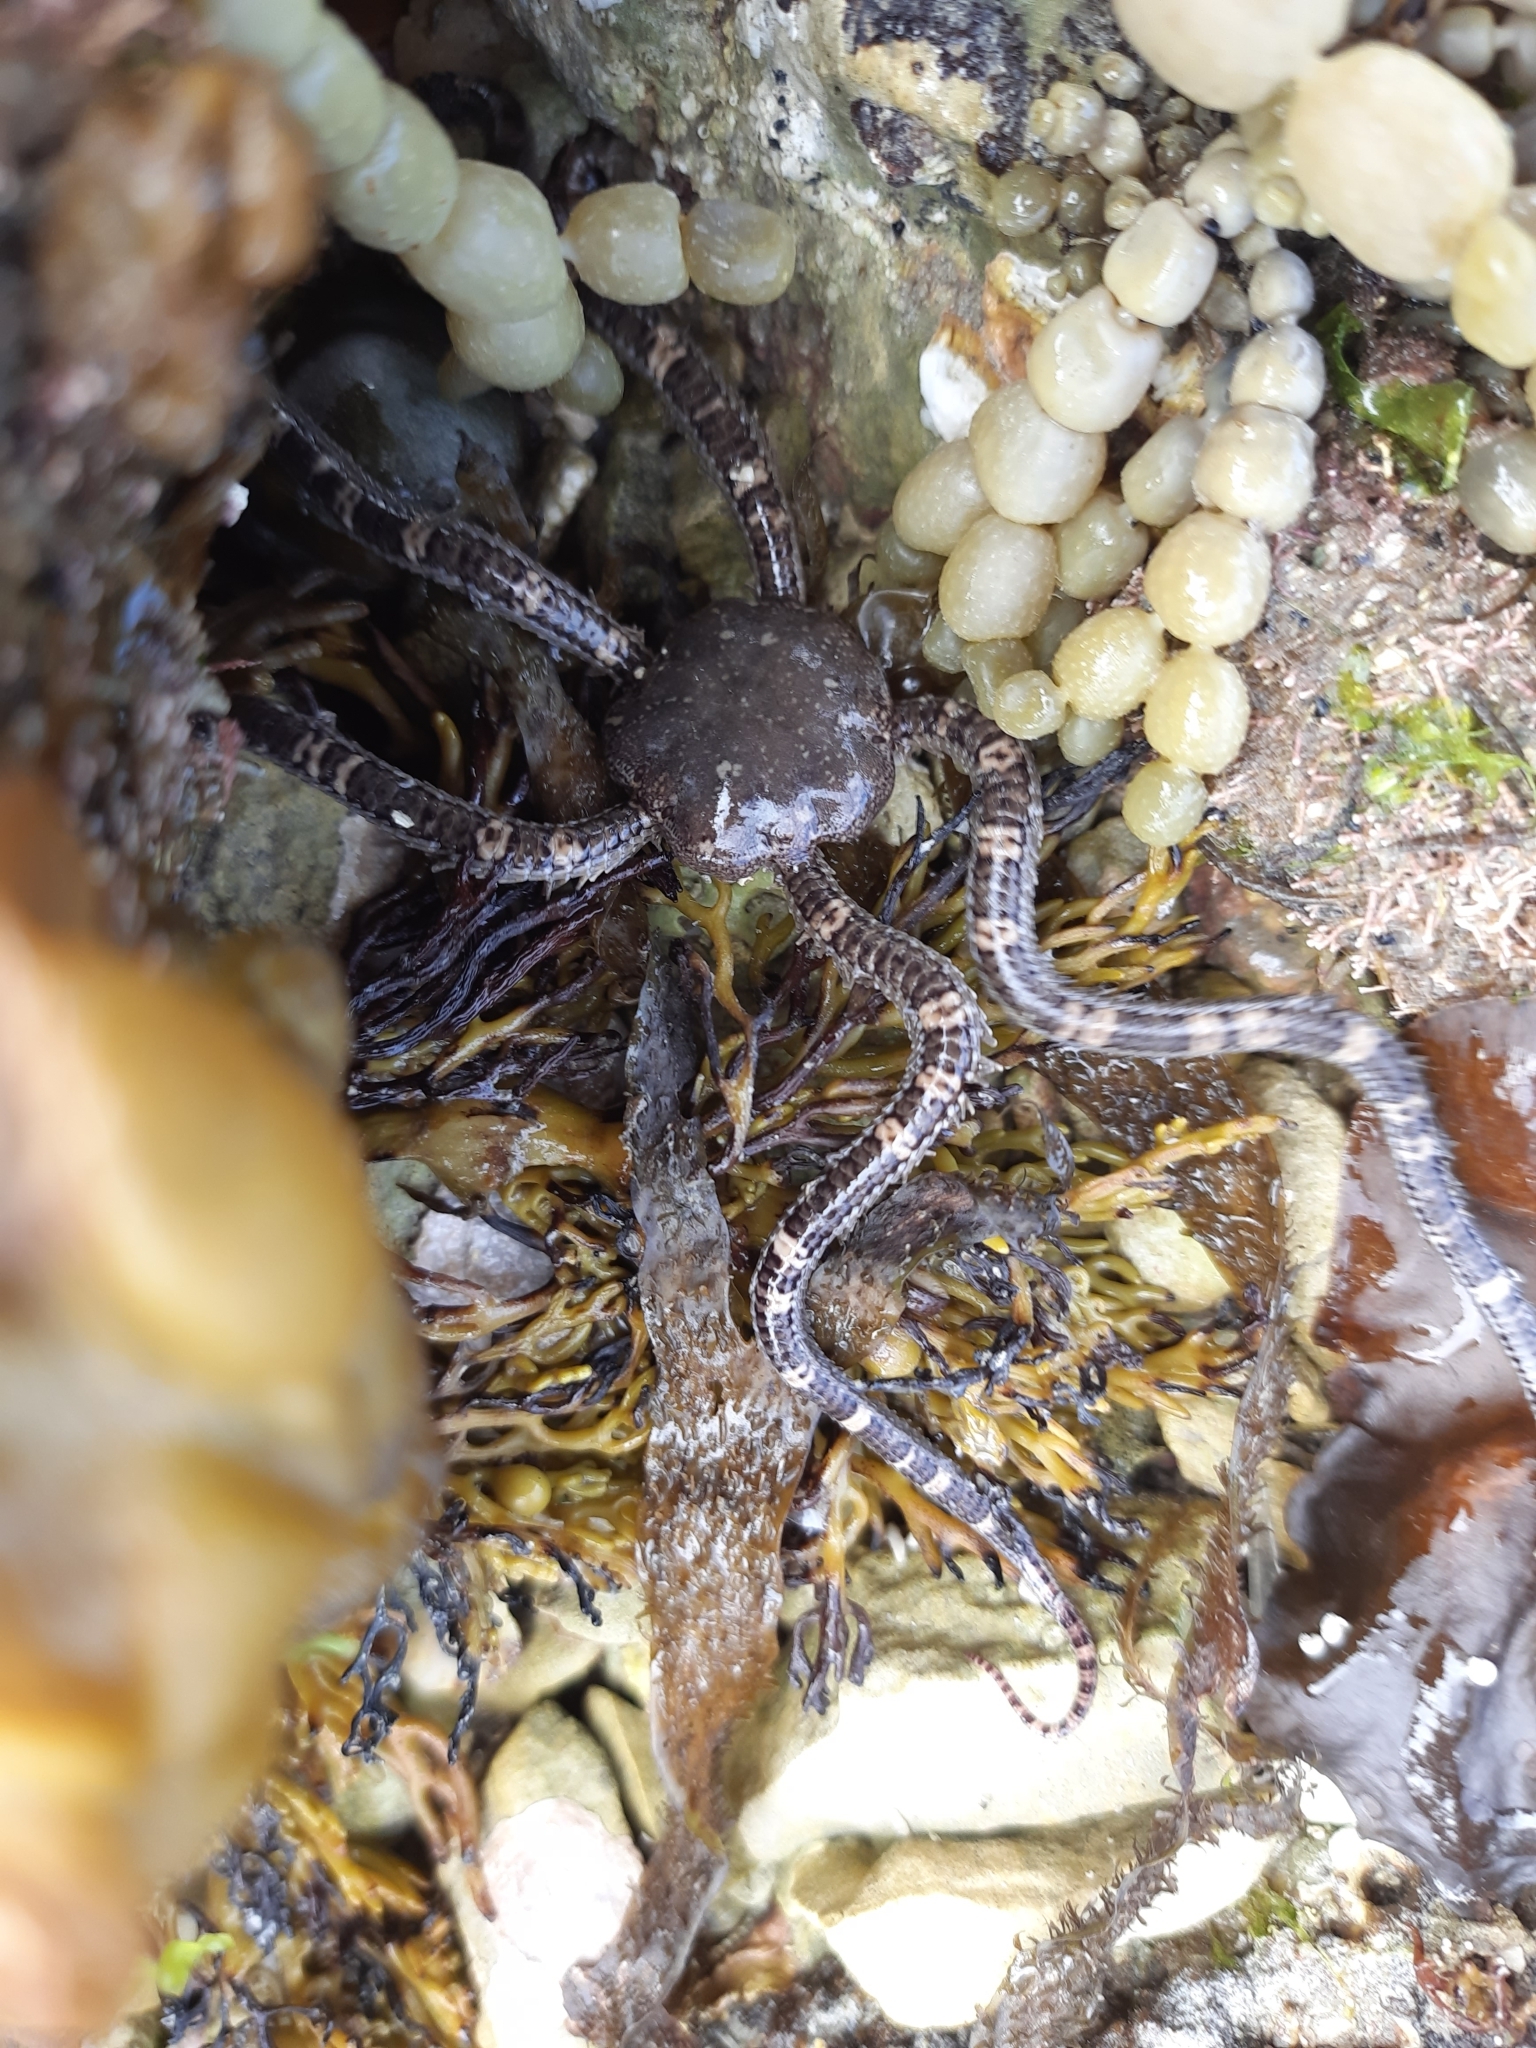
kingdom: Animalia
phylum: Echinodermata
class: Ophiuroidea
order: Amphilepidida
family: Ophionereididae
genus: Ophionereis
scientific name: Ophionereis fasciata
